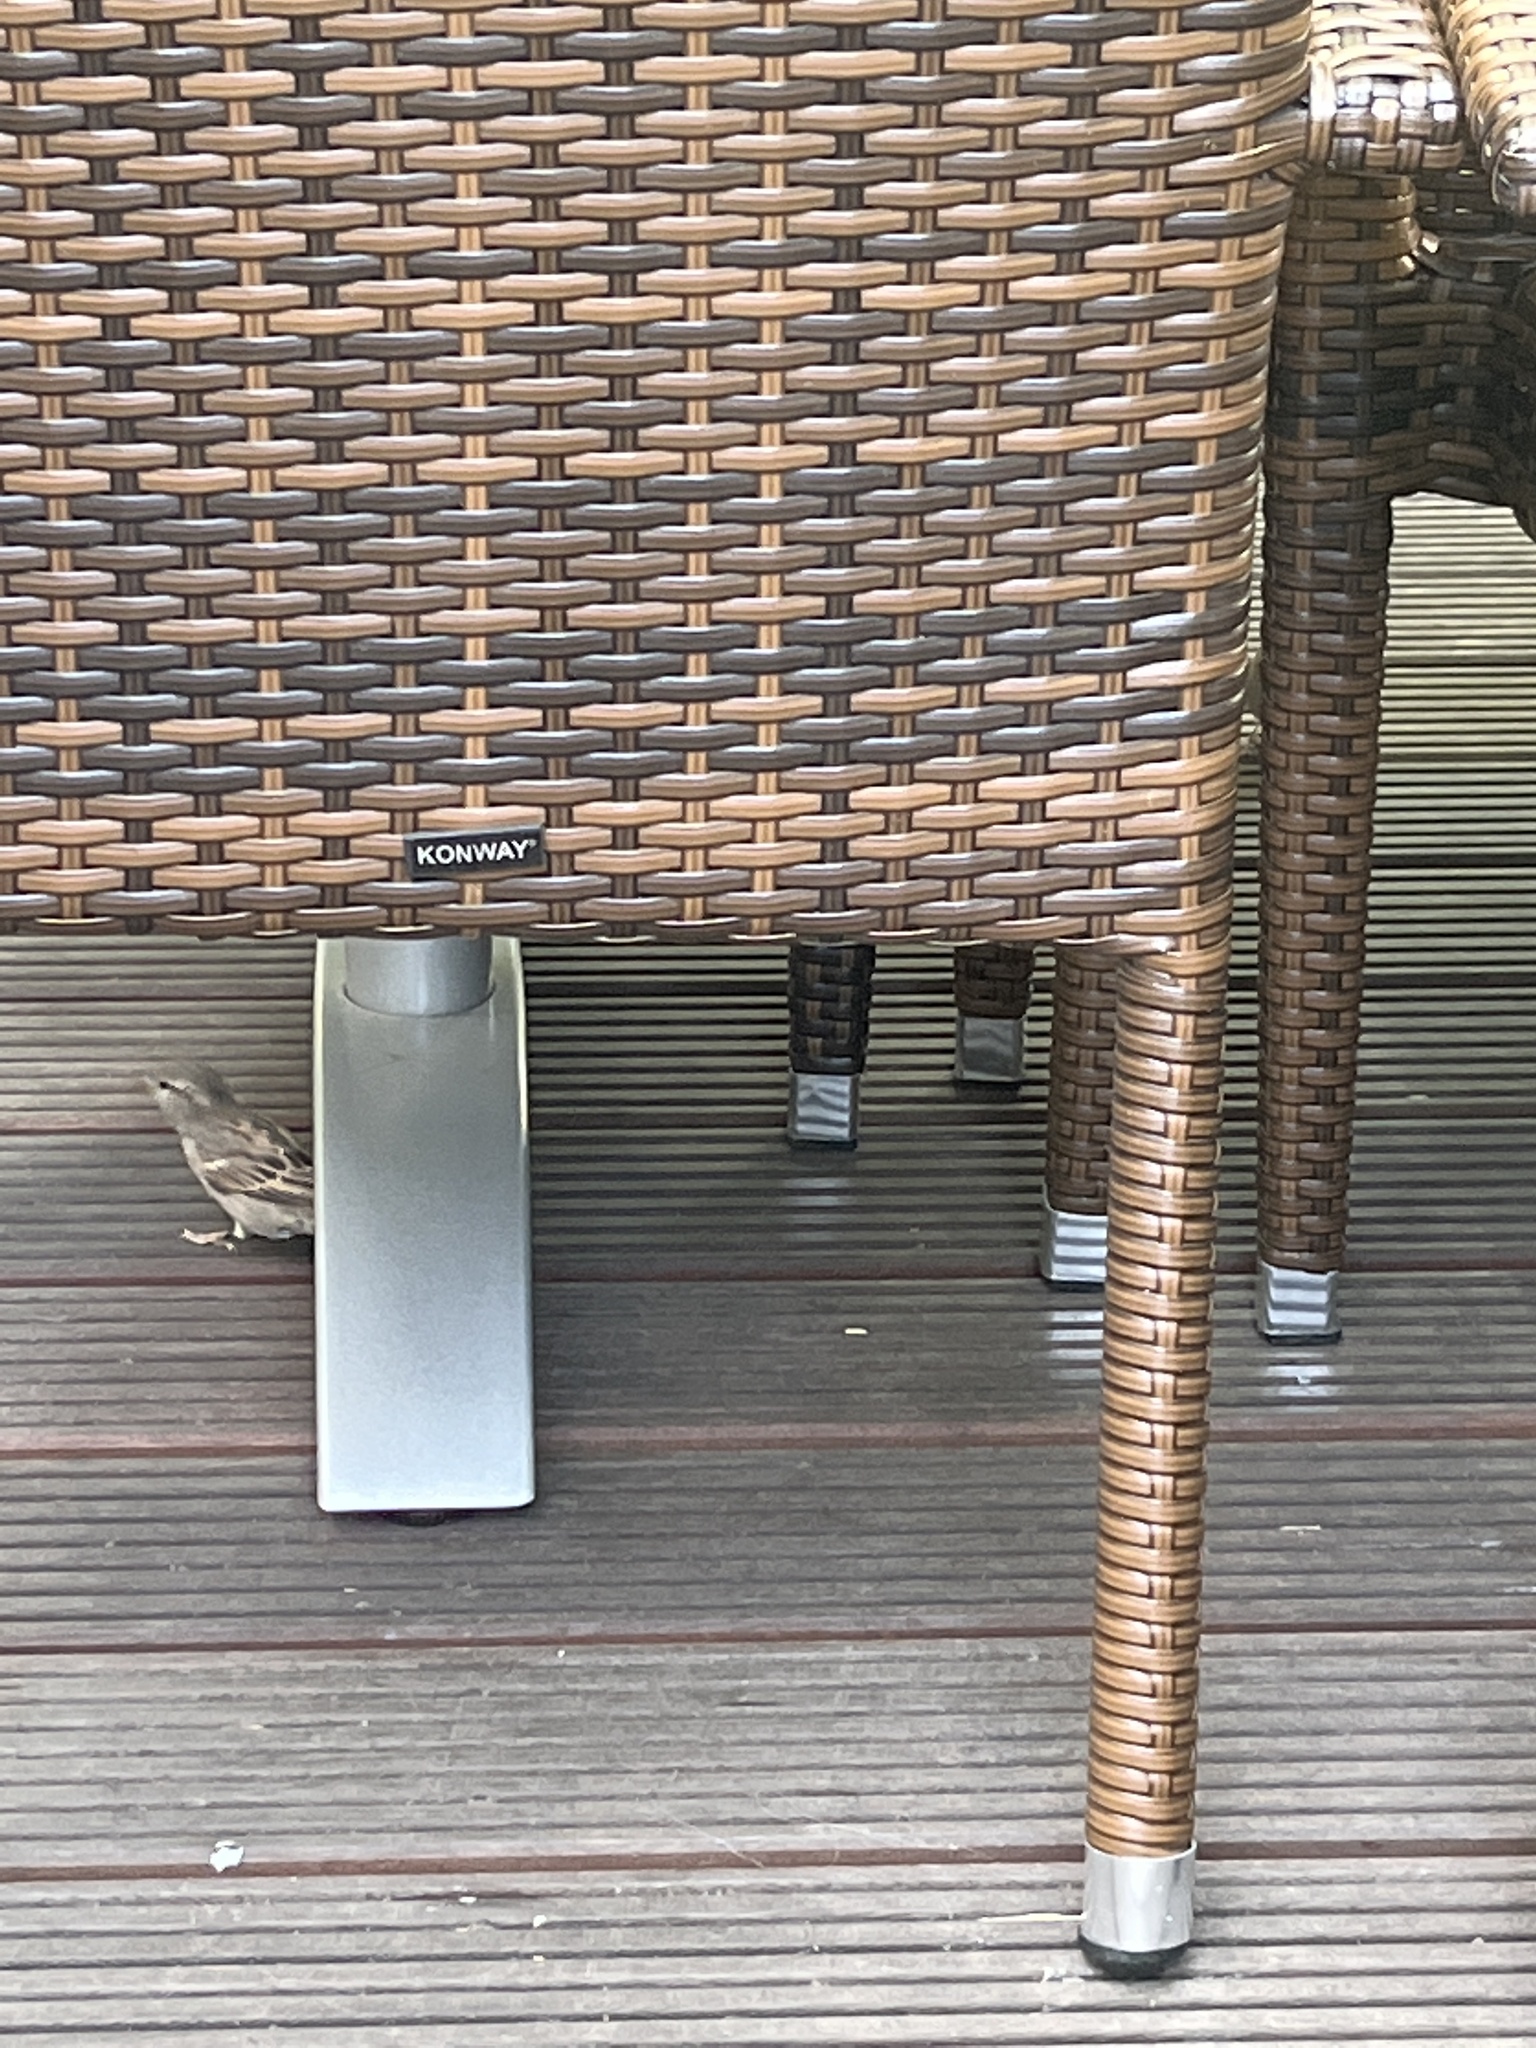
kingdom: Animalia
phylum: Chordata
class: Aves
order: Passeriformes
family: Passeridae
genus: Passer
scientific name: Passer domesticus
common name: House sparrow
